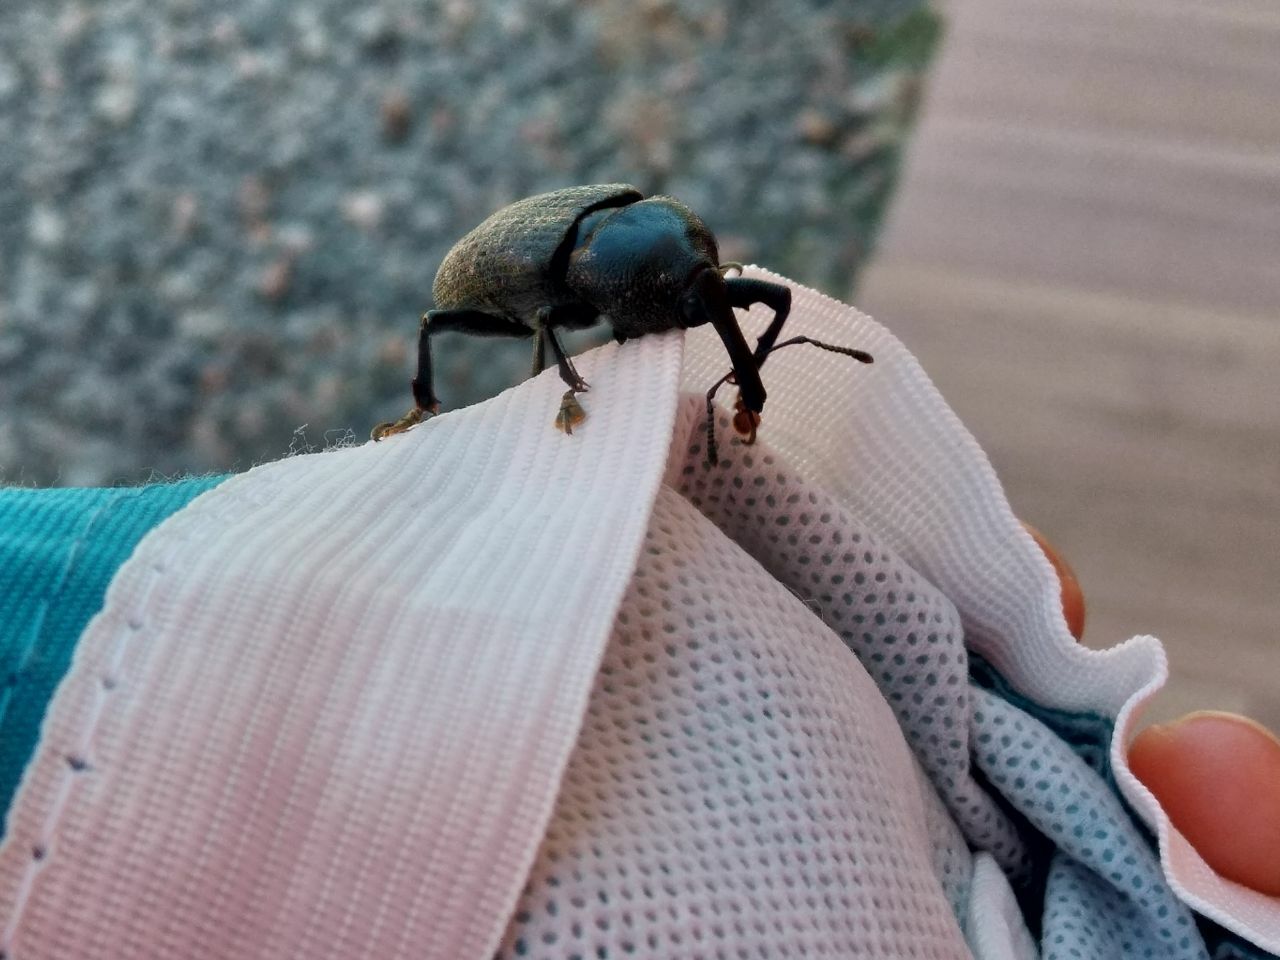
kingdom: Animalia
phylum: Arthropoda
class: Insecta
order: Coleoptera
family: Curculionidae
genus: Homalinotus
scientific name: Homalinotus coriaceus
